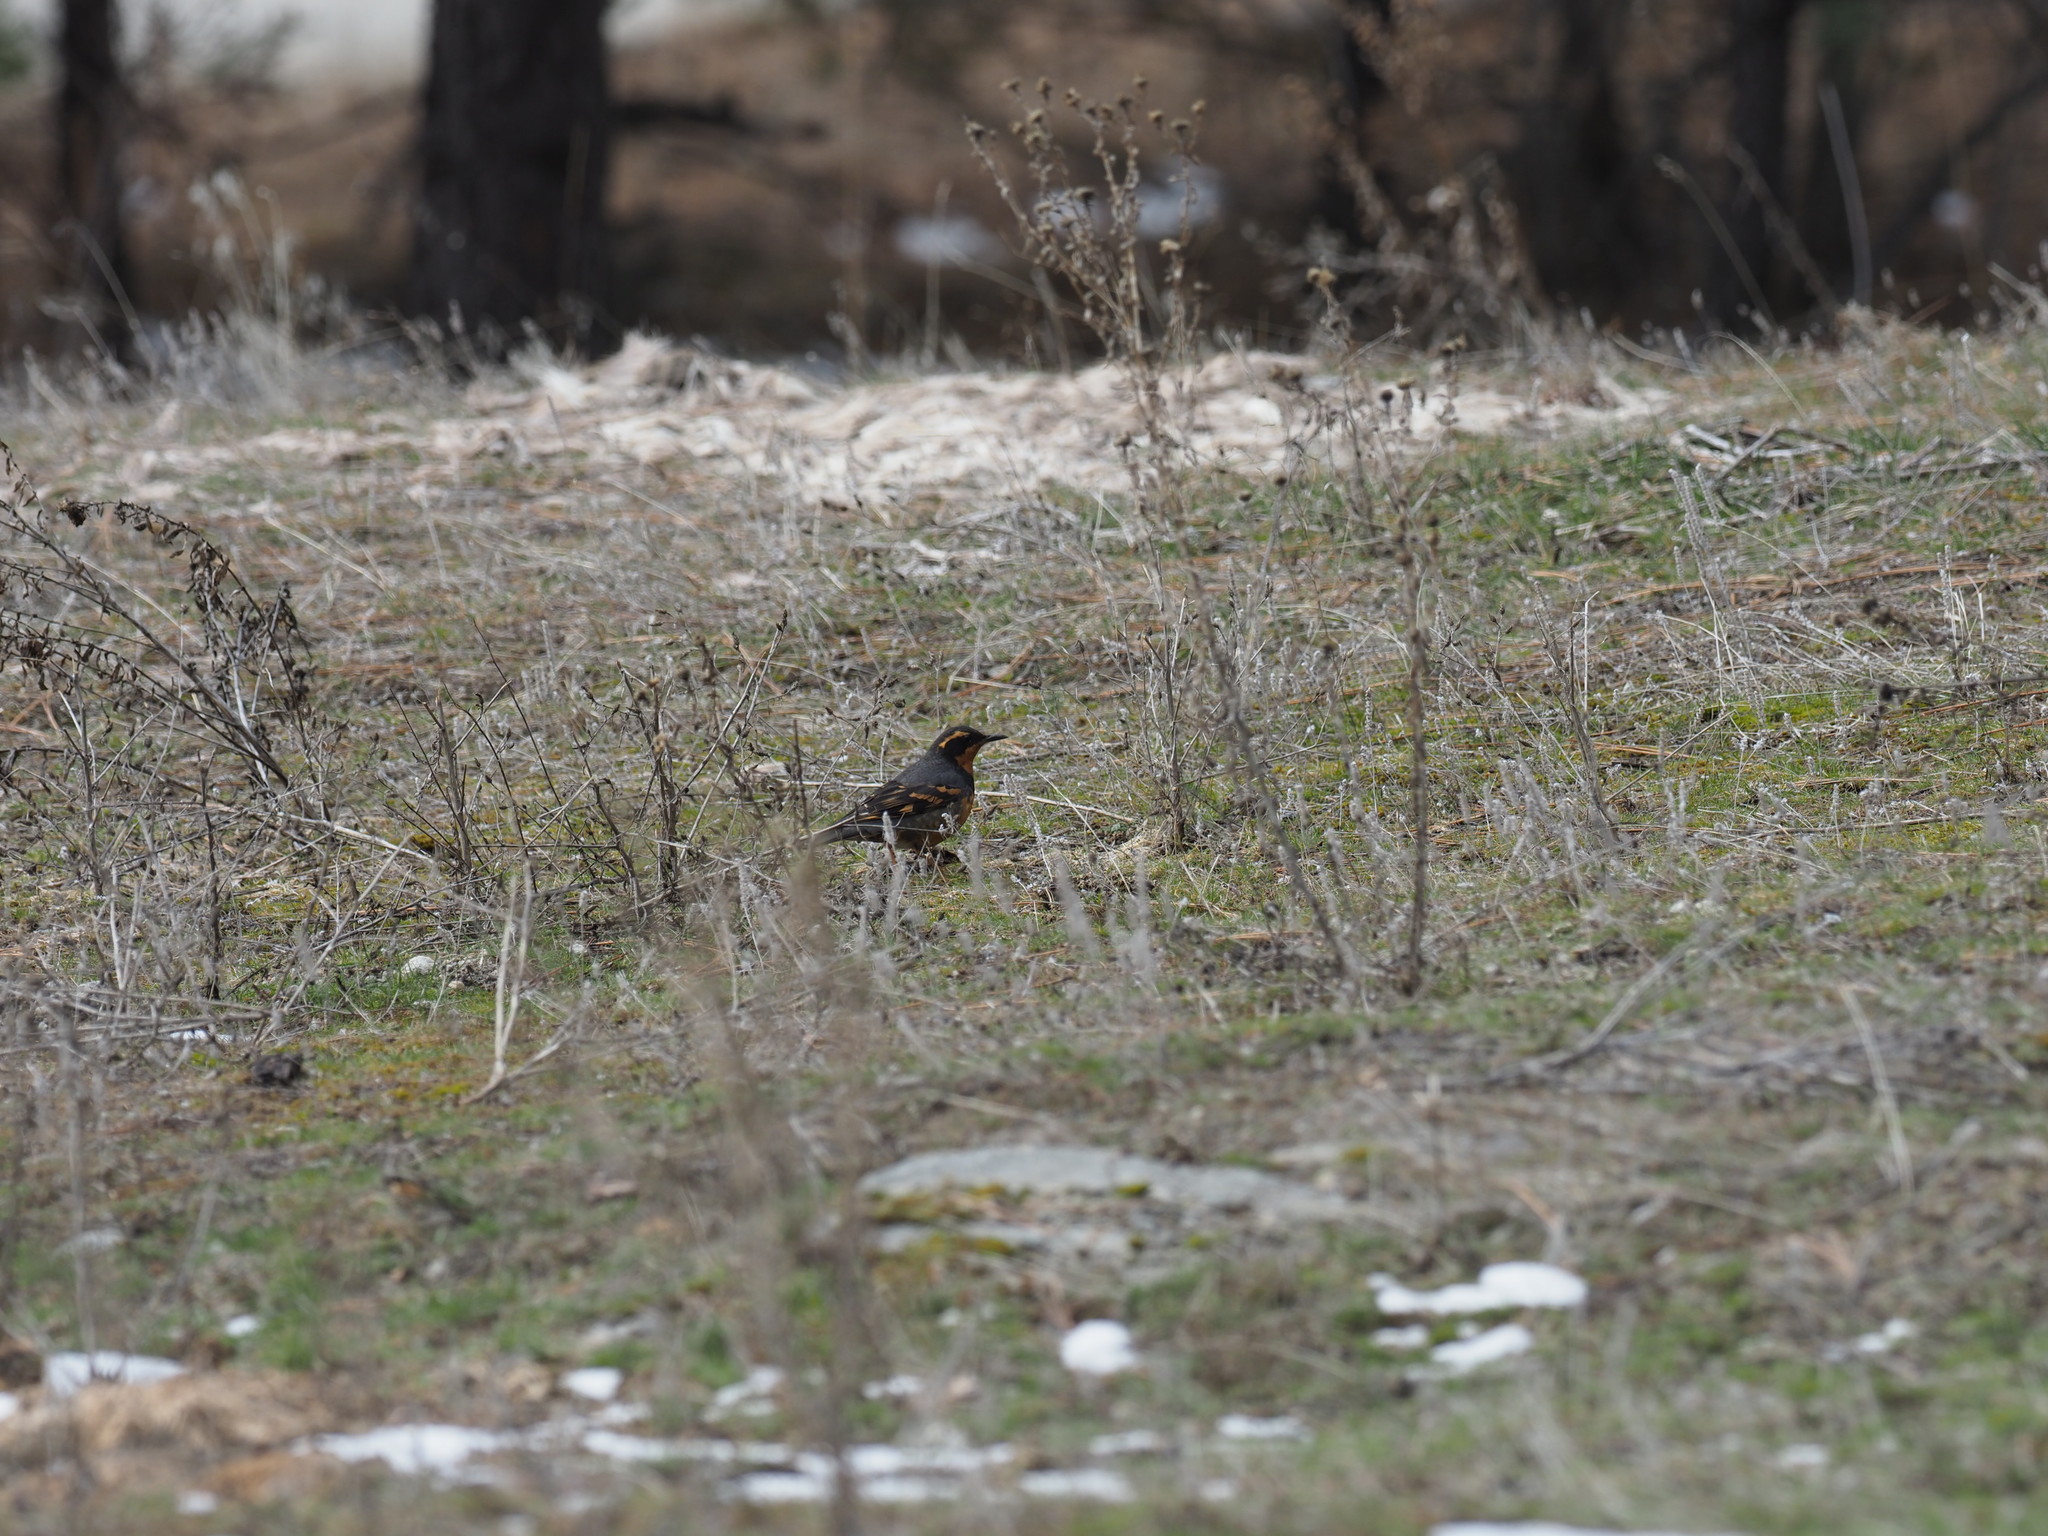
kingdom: Animalia
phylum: Chordata
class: Aves
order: Passeriformes
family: Turdidae
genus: Ixoreus
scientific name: Ixoreus naevius
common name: Varied thrush
